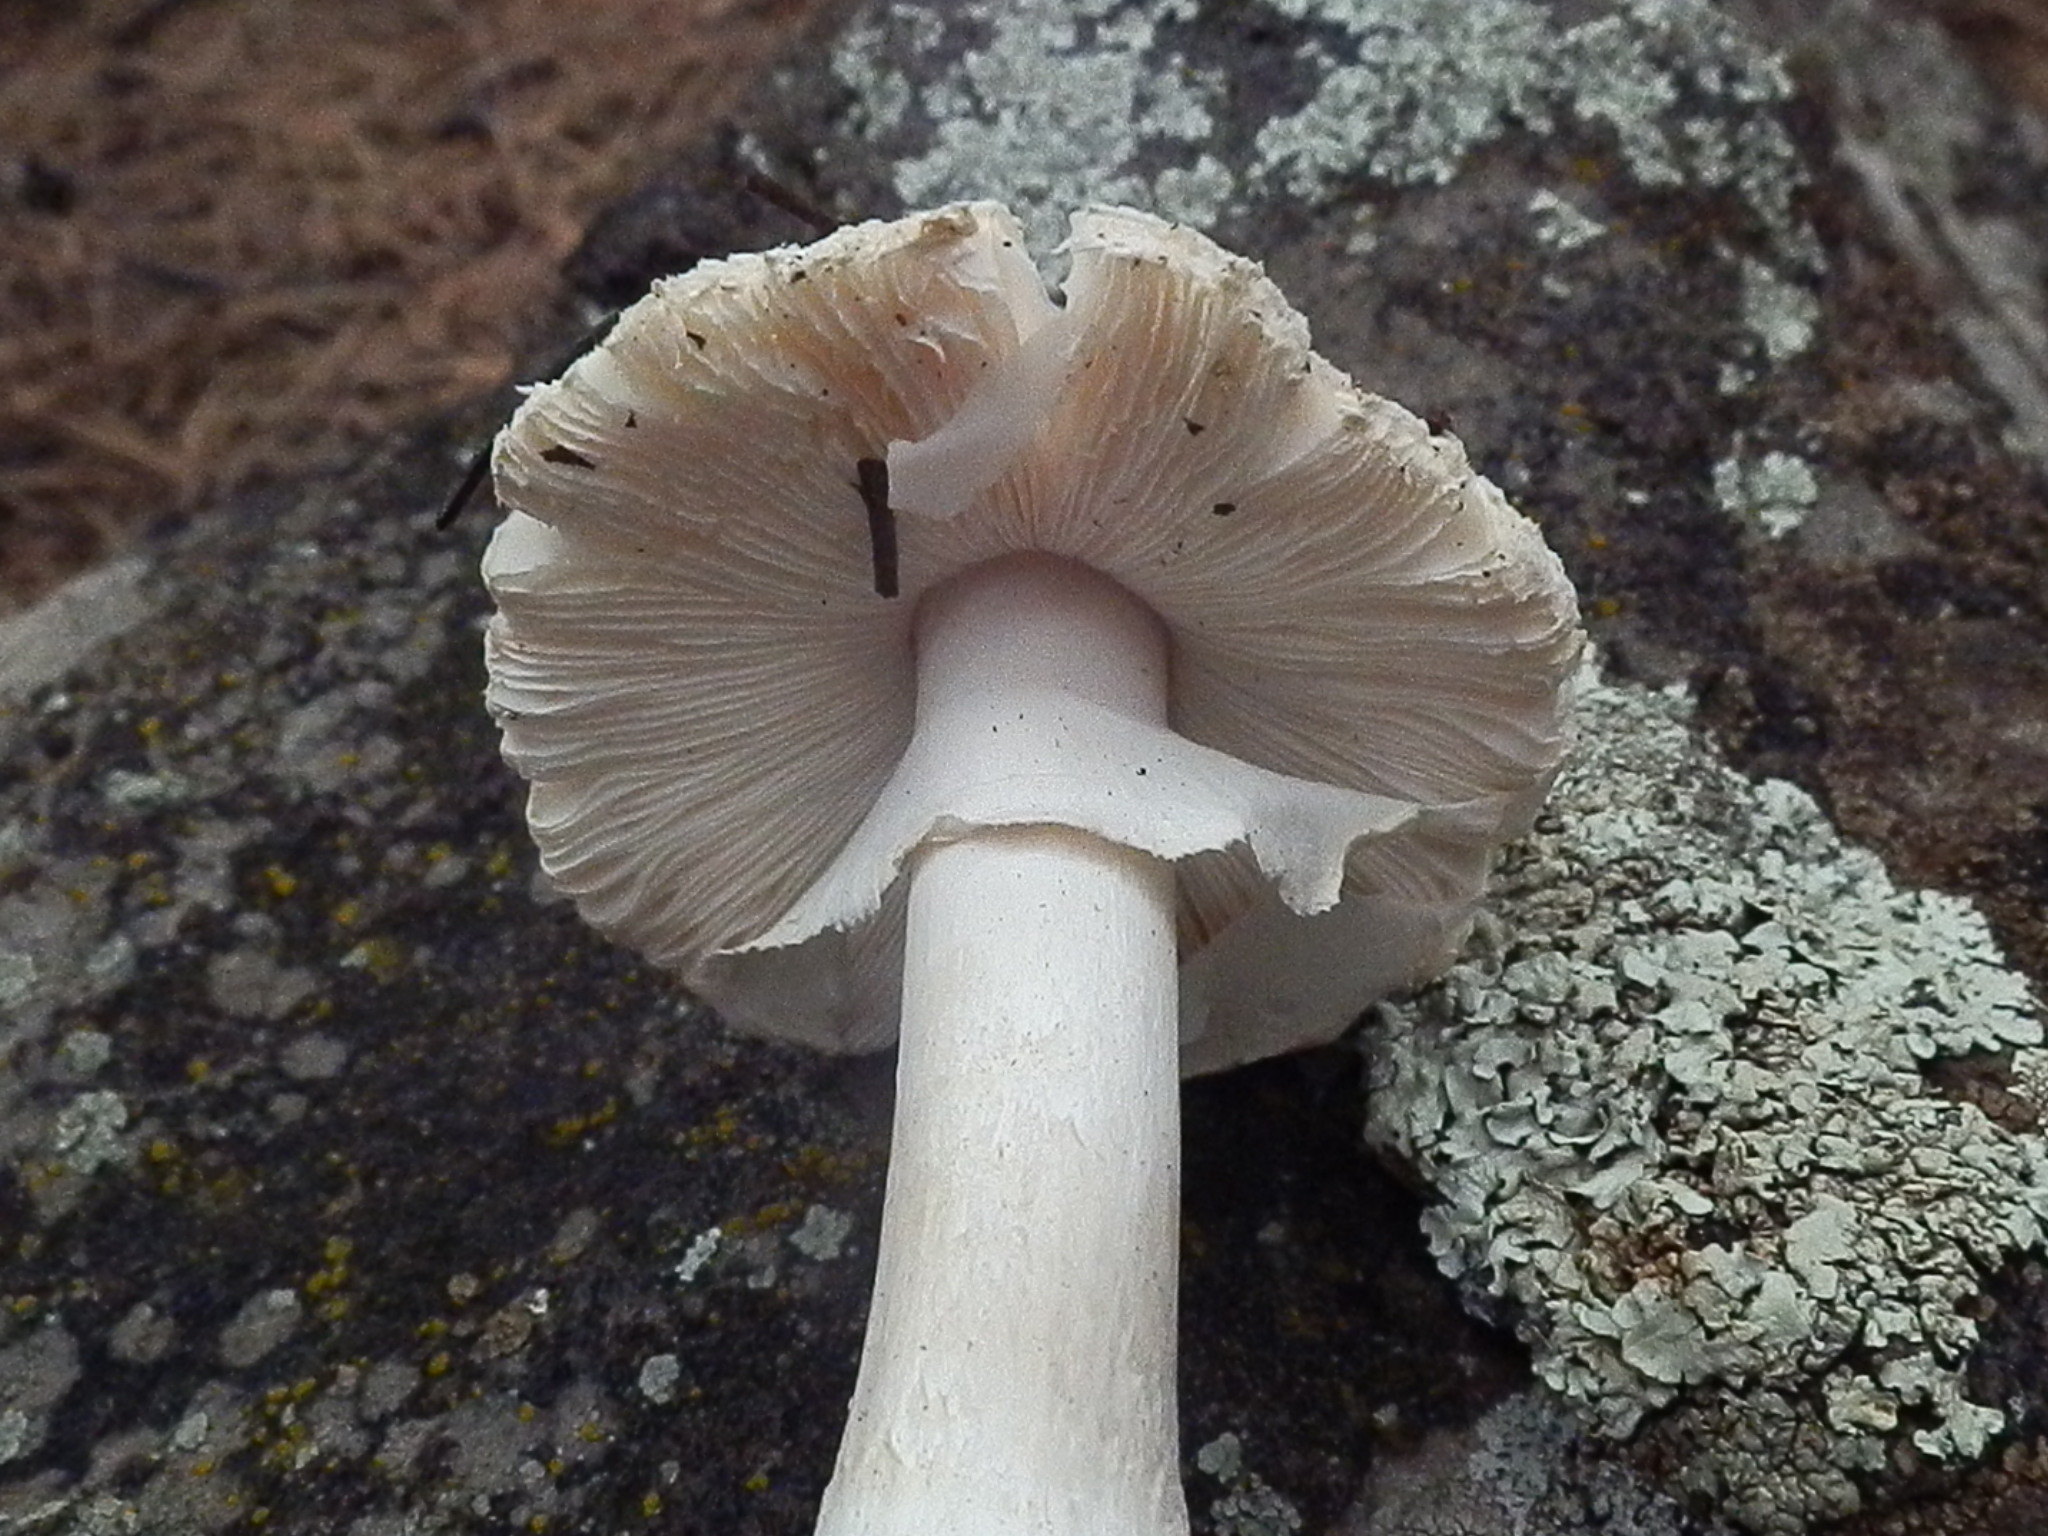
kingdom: Fungi
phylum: Basidiomycota
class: Agaricomycetes
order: Agaricales
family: Amanitaceae
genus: Amanita
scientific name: Amanita gemmata
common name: Jewelled amanita
